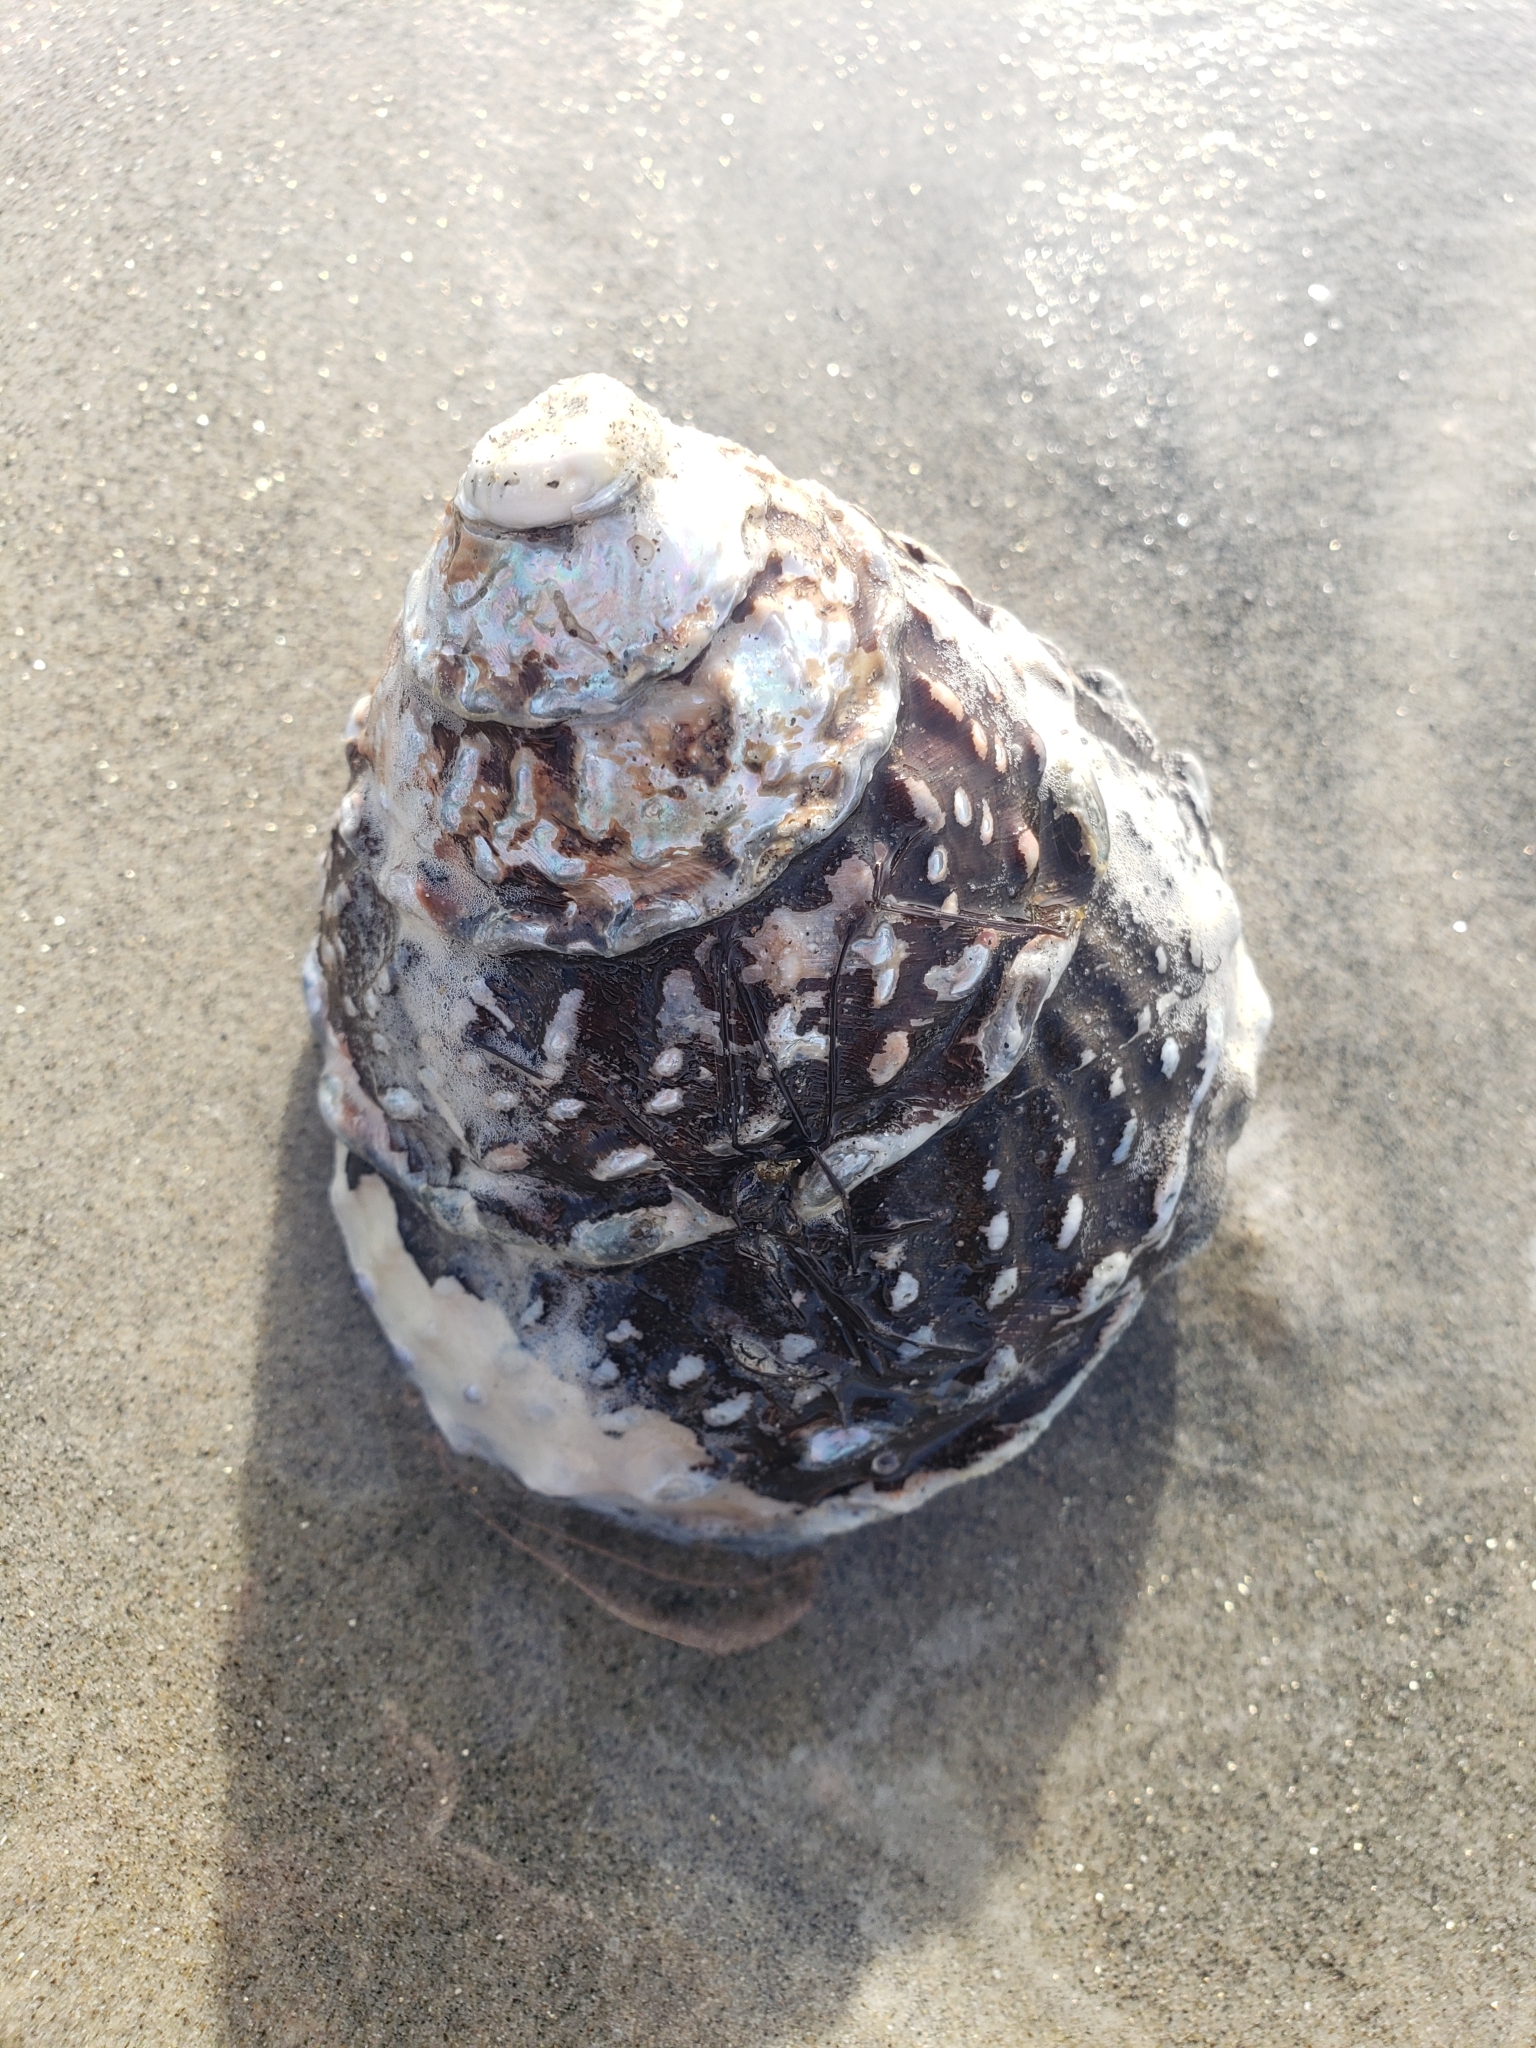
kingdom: Animalia
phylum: Mollusca
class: Gastropoda
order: Trochida
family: Turbinidae
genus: Megastraea
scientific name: Megastraea undosa
